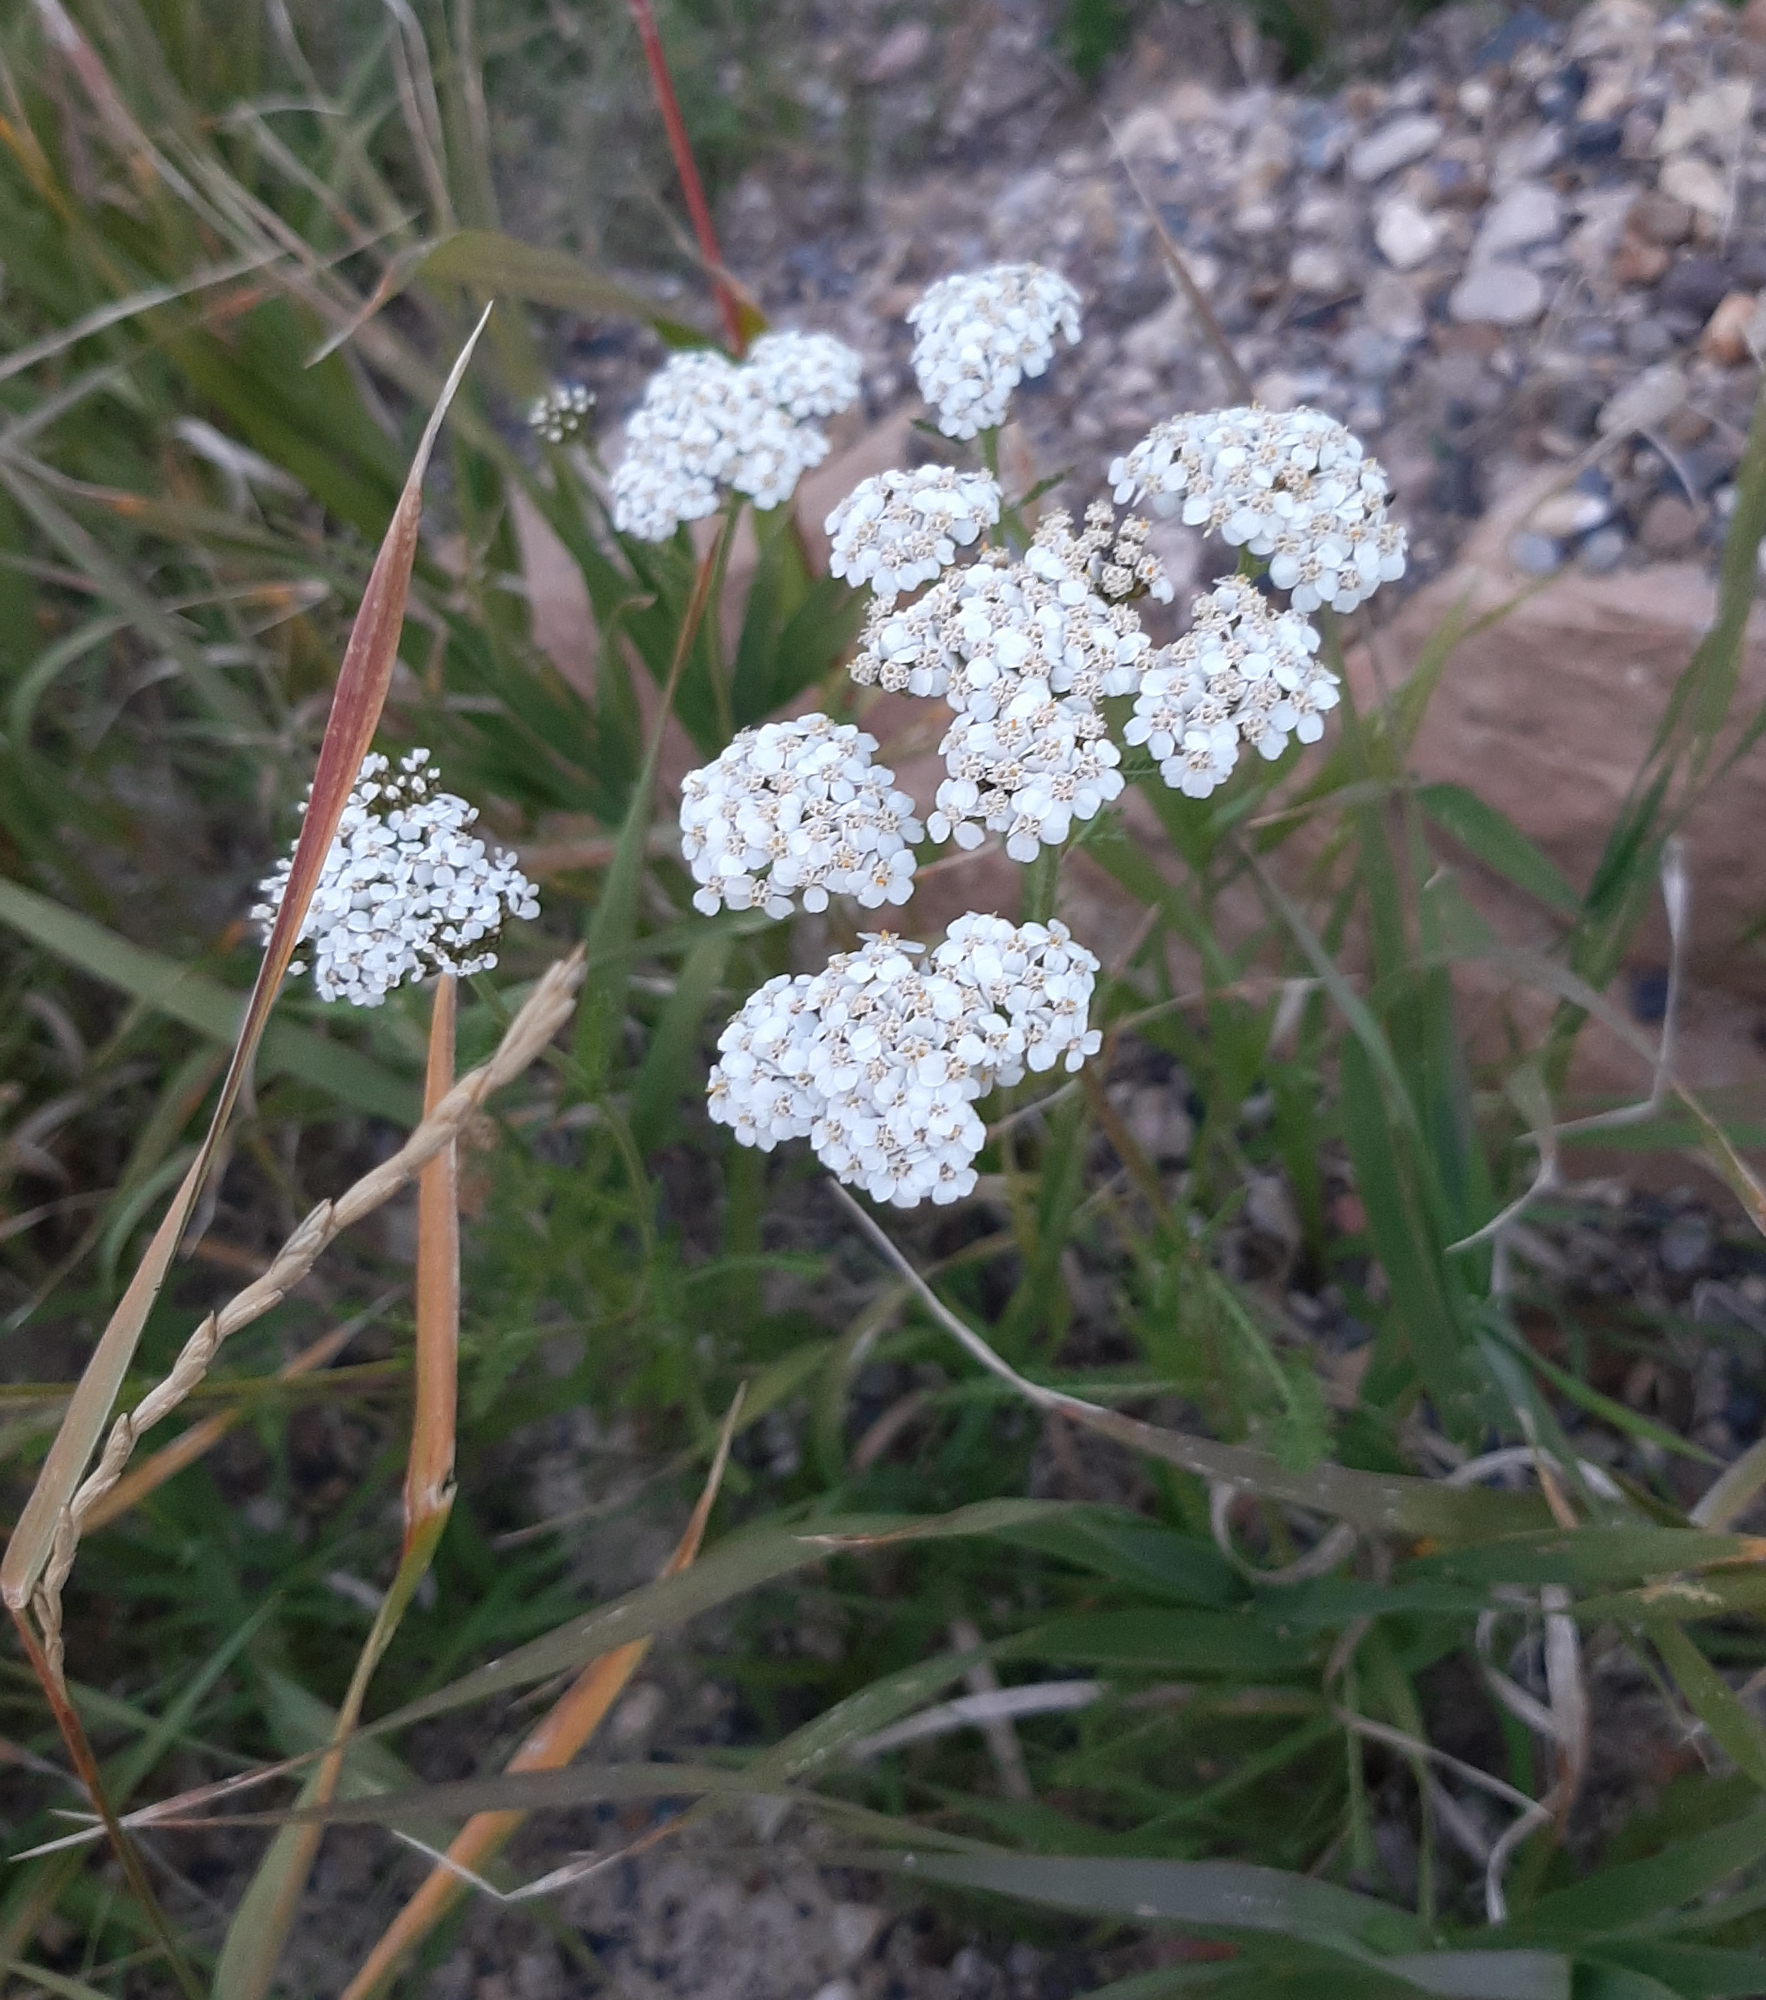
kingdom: Plantae
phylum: Tracheophyta
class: Magnoliopsida
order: Asterales
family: Asteraceae
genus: Achillea
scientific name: Achillea millefolium
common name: Yarrow
